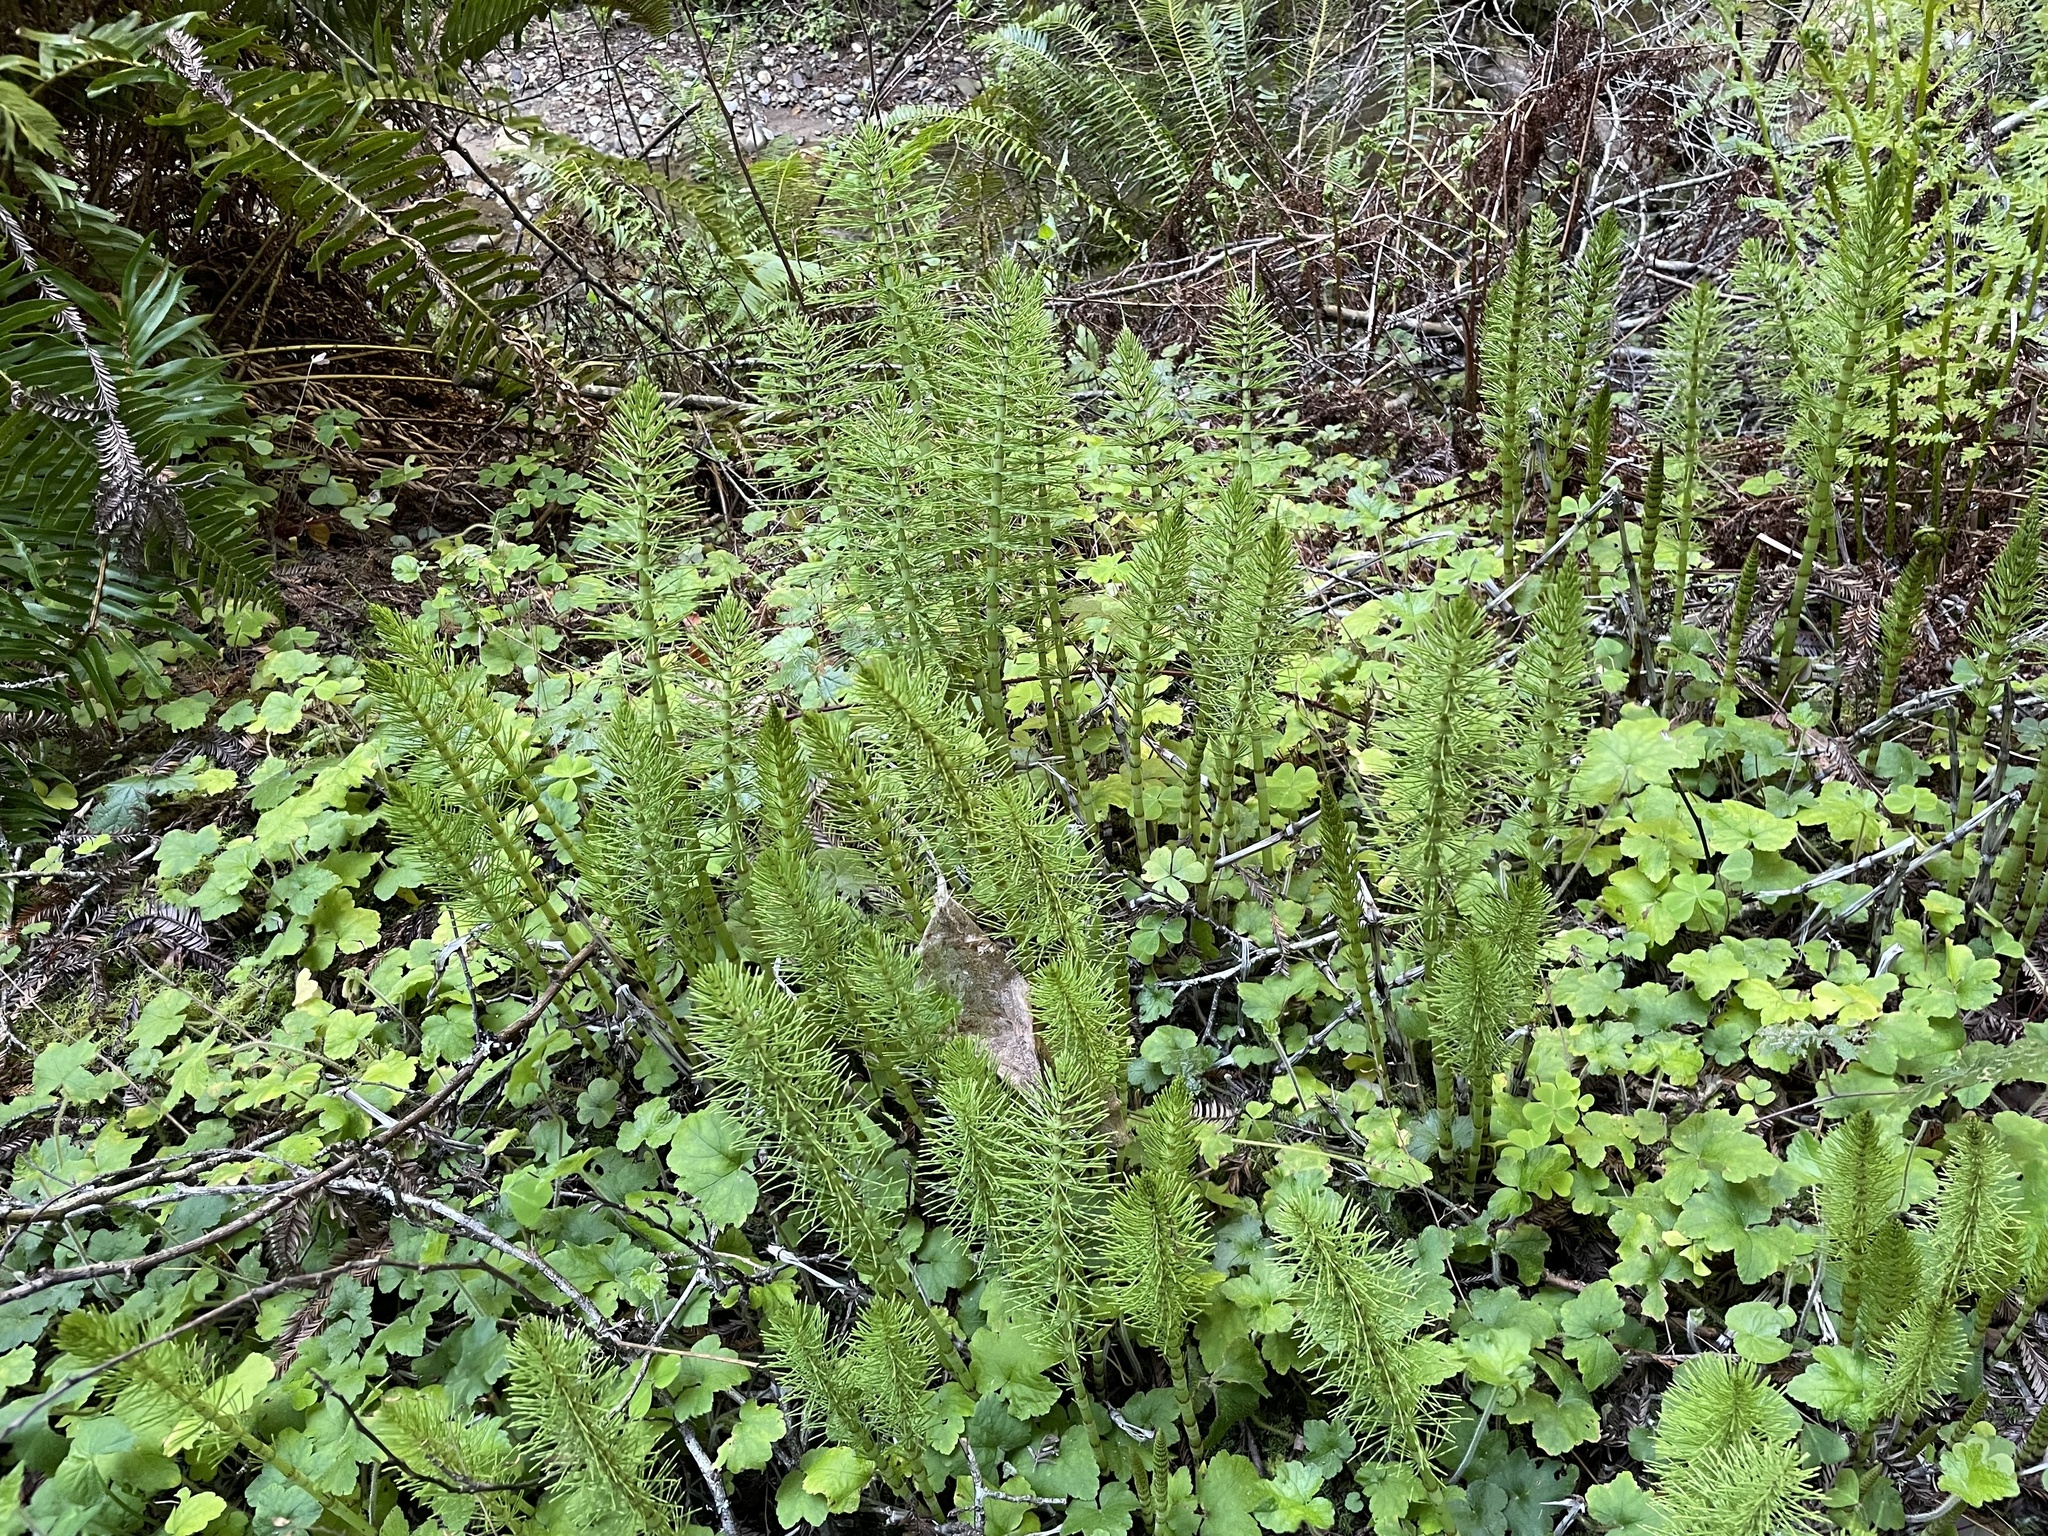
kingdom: Plantae
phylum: Tracheophyta
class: Polypodiopsida
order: Equisetales
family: Equisetaceae
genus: Equisetum
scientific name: Equisetum telmateia
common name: Great horsetail
